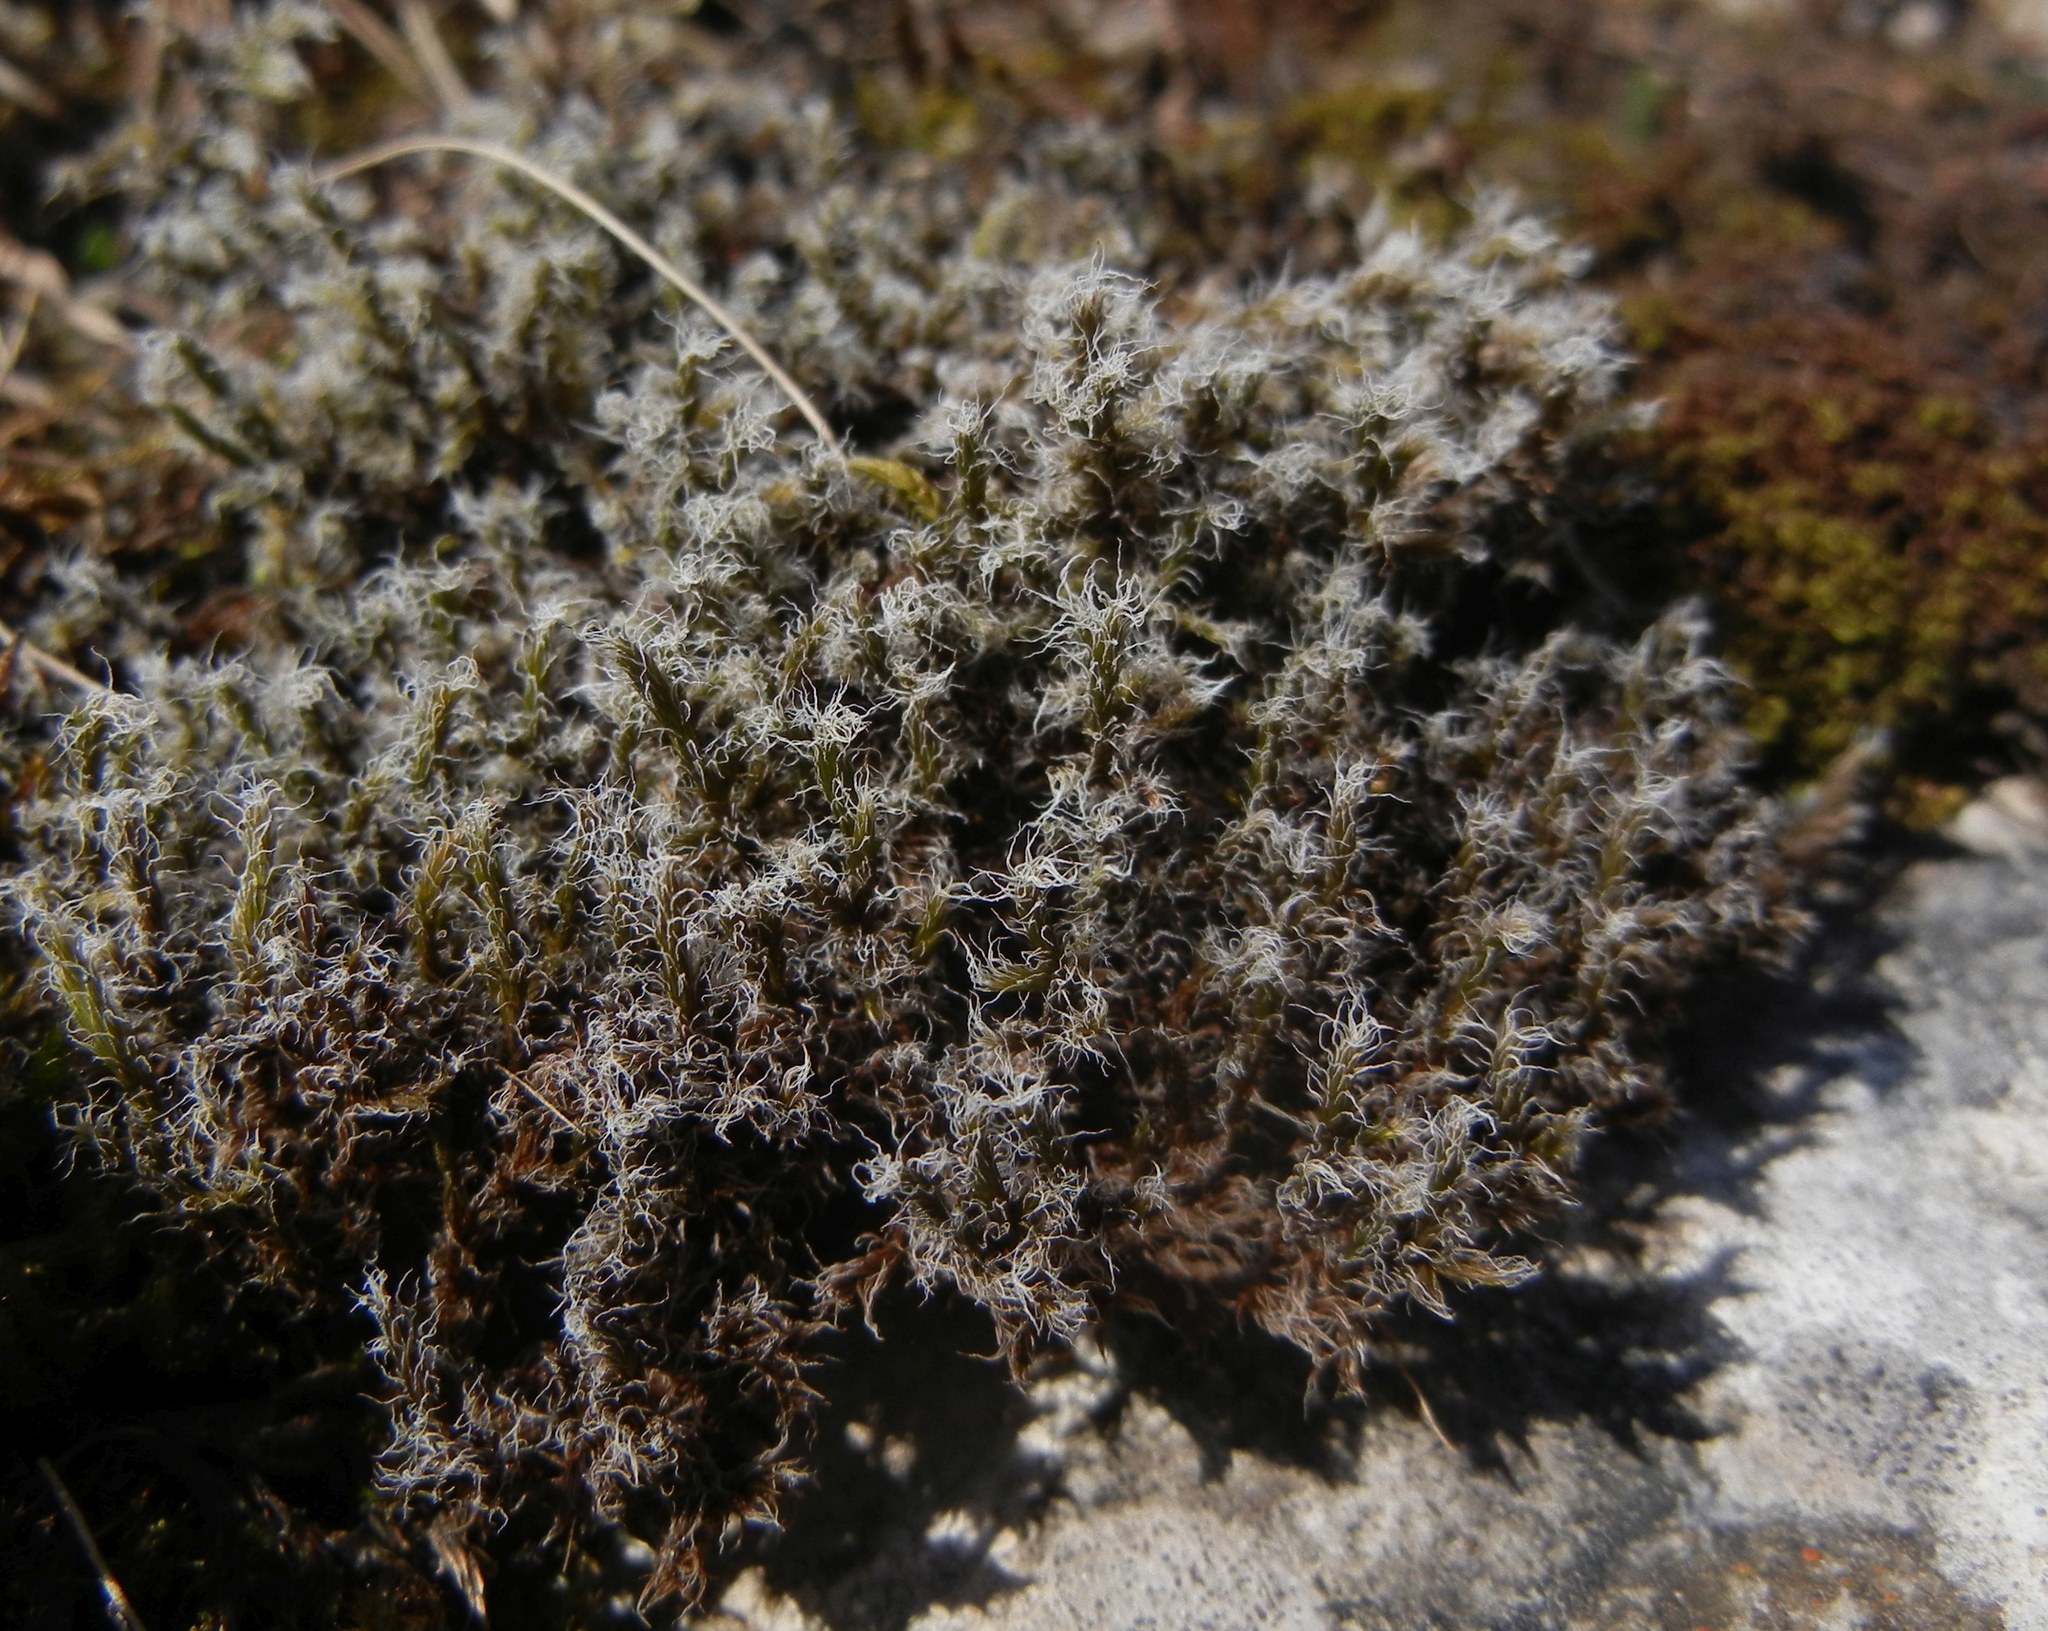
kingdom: Plantae
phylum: Bryophyta
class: Bryopsida
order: Grimmiales
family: Grimmiaceae
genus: Racomitrium
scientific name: Racomitrium lanuginosum
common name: Hoary rock moss
